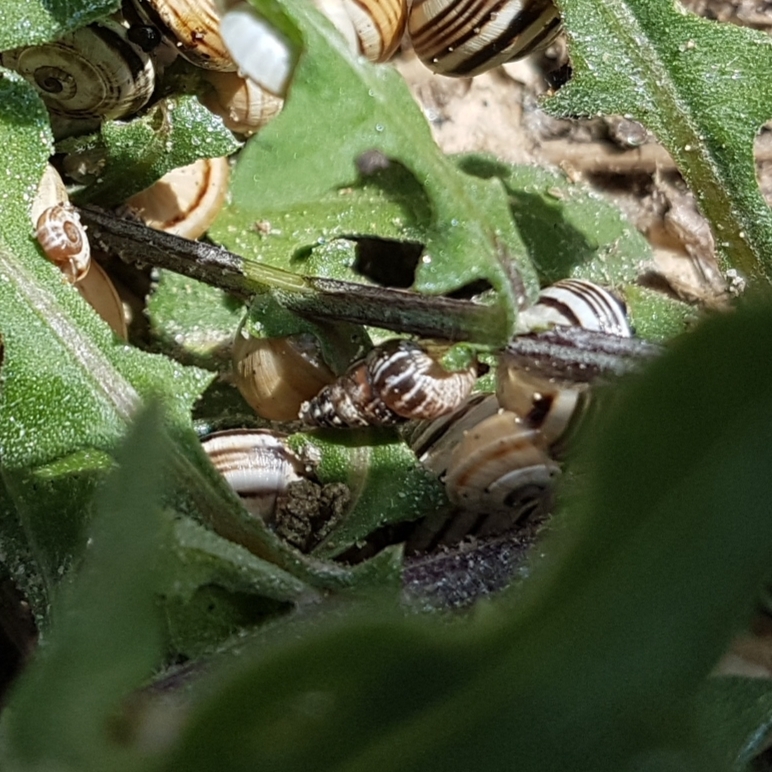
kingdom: Animalia
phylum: Mollusca
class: Gastropoda
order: Stylommatophora
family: Geomitridae
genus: Cochlicella
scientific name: Cochlicella barbara
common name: Potbellied helicellid
